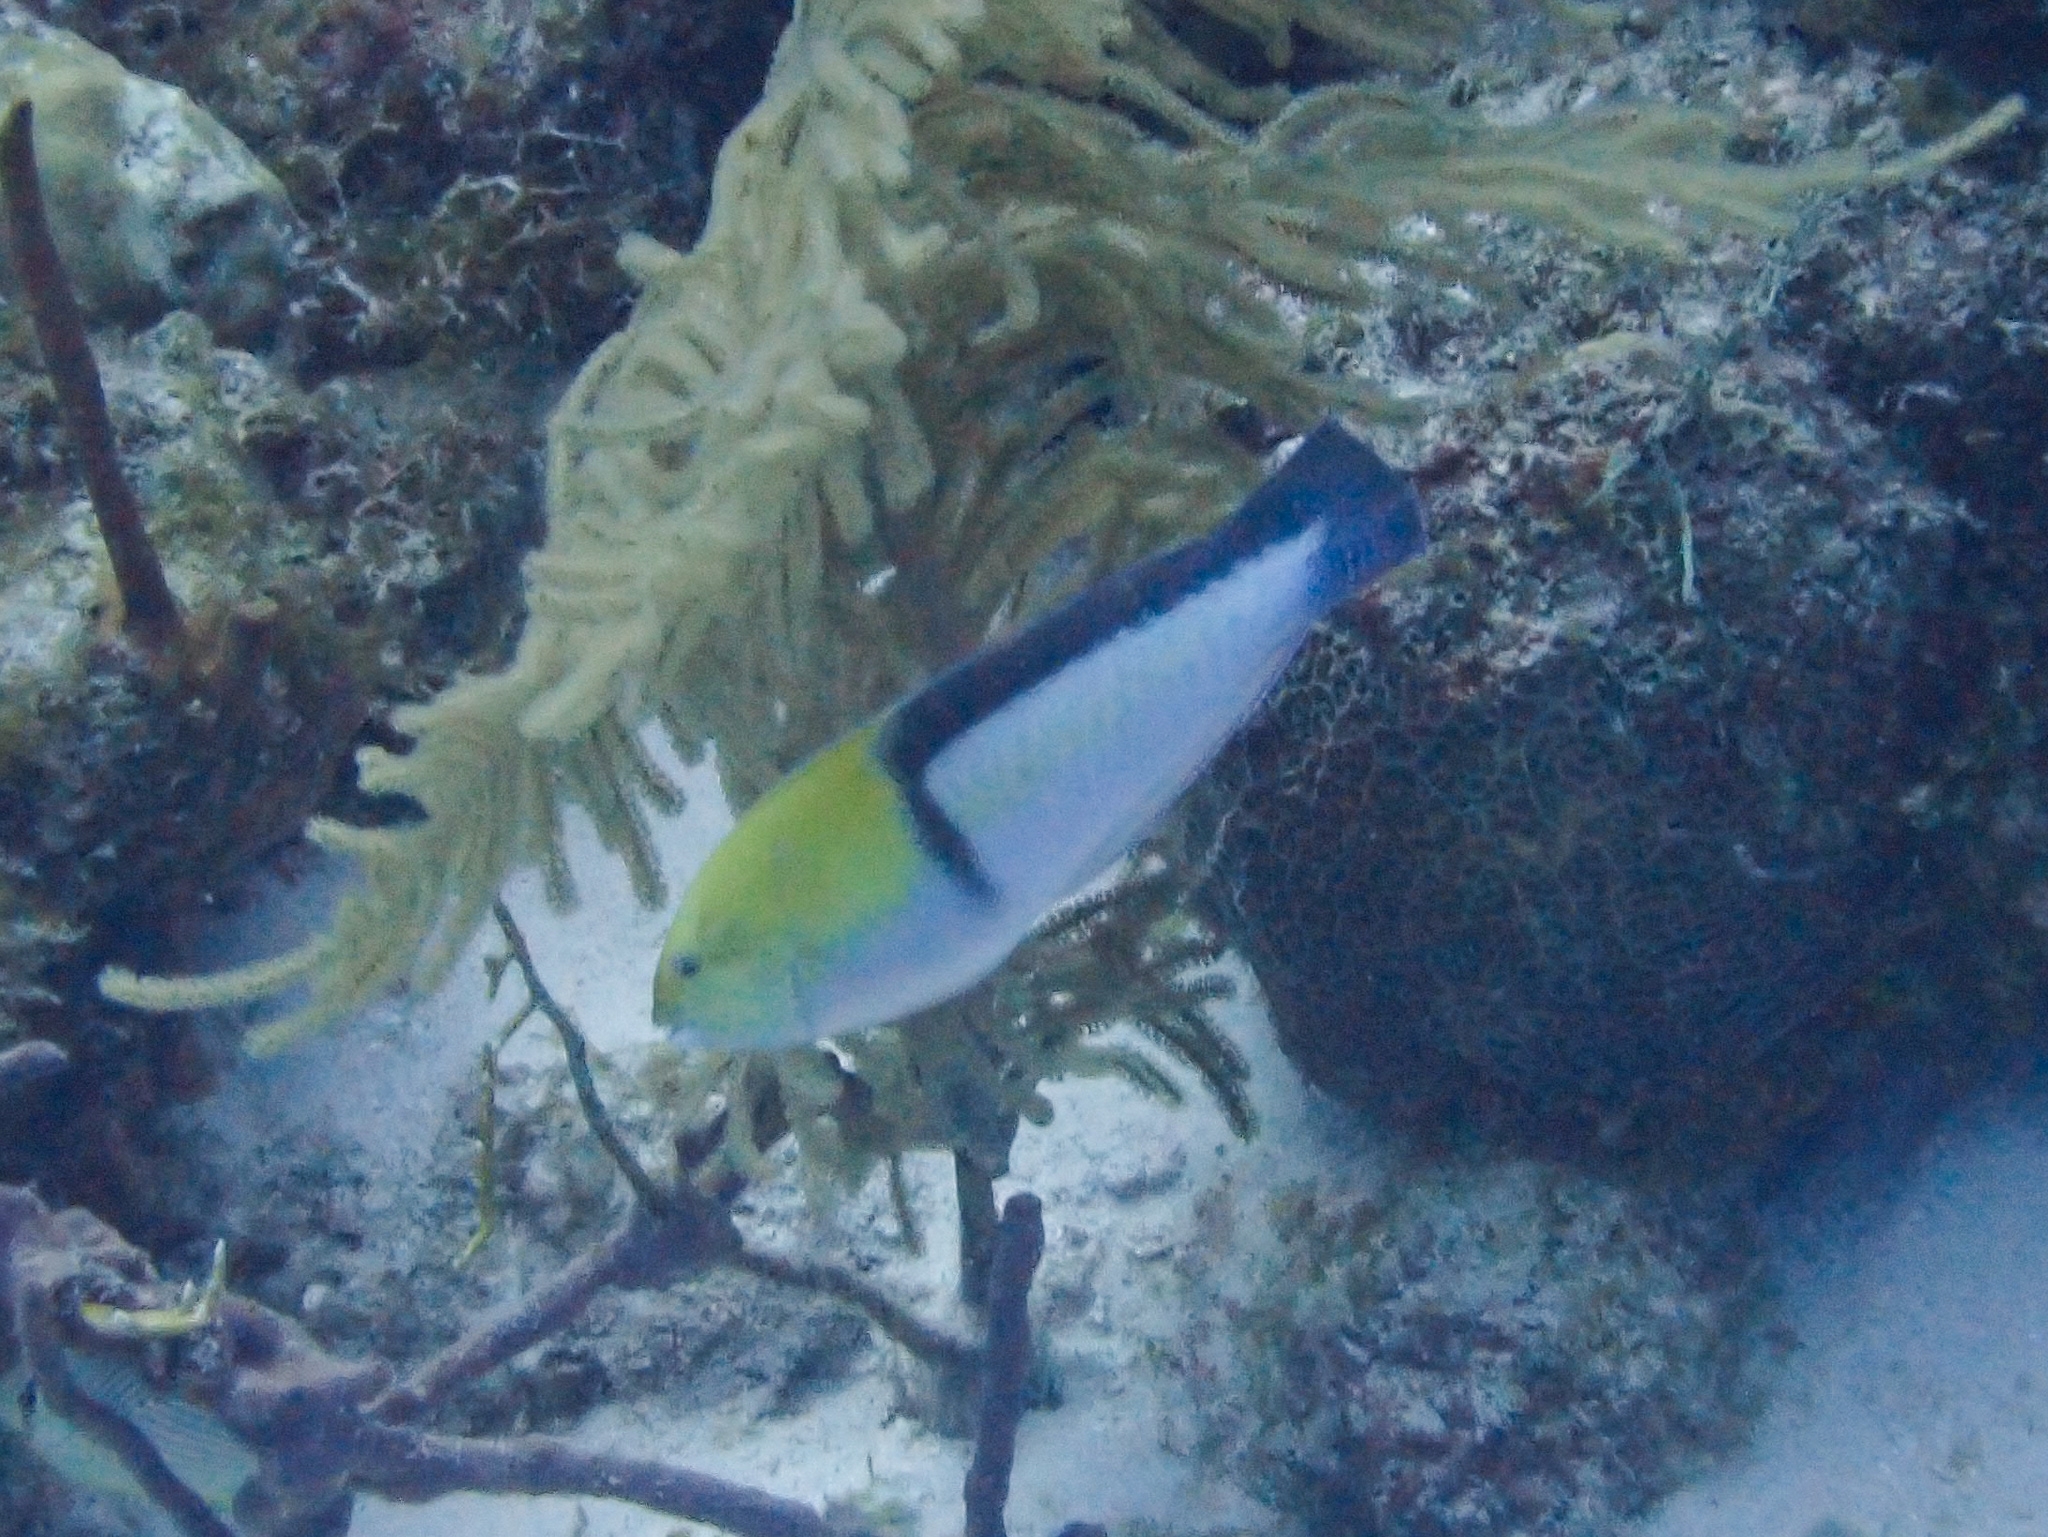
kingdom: Animalia
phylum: Chordata
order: Perciformes
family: Labridae
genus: Halichoeres
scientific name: Halichoeres garnoti
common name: Yellowhead wrasse
